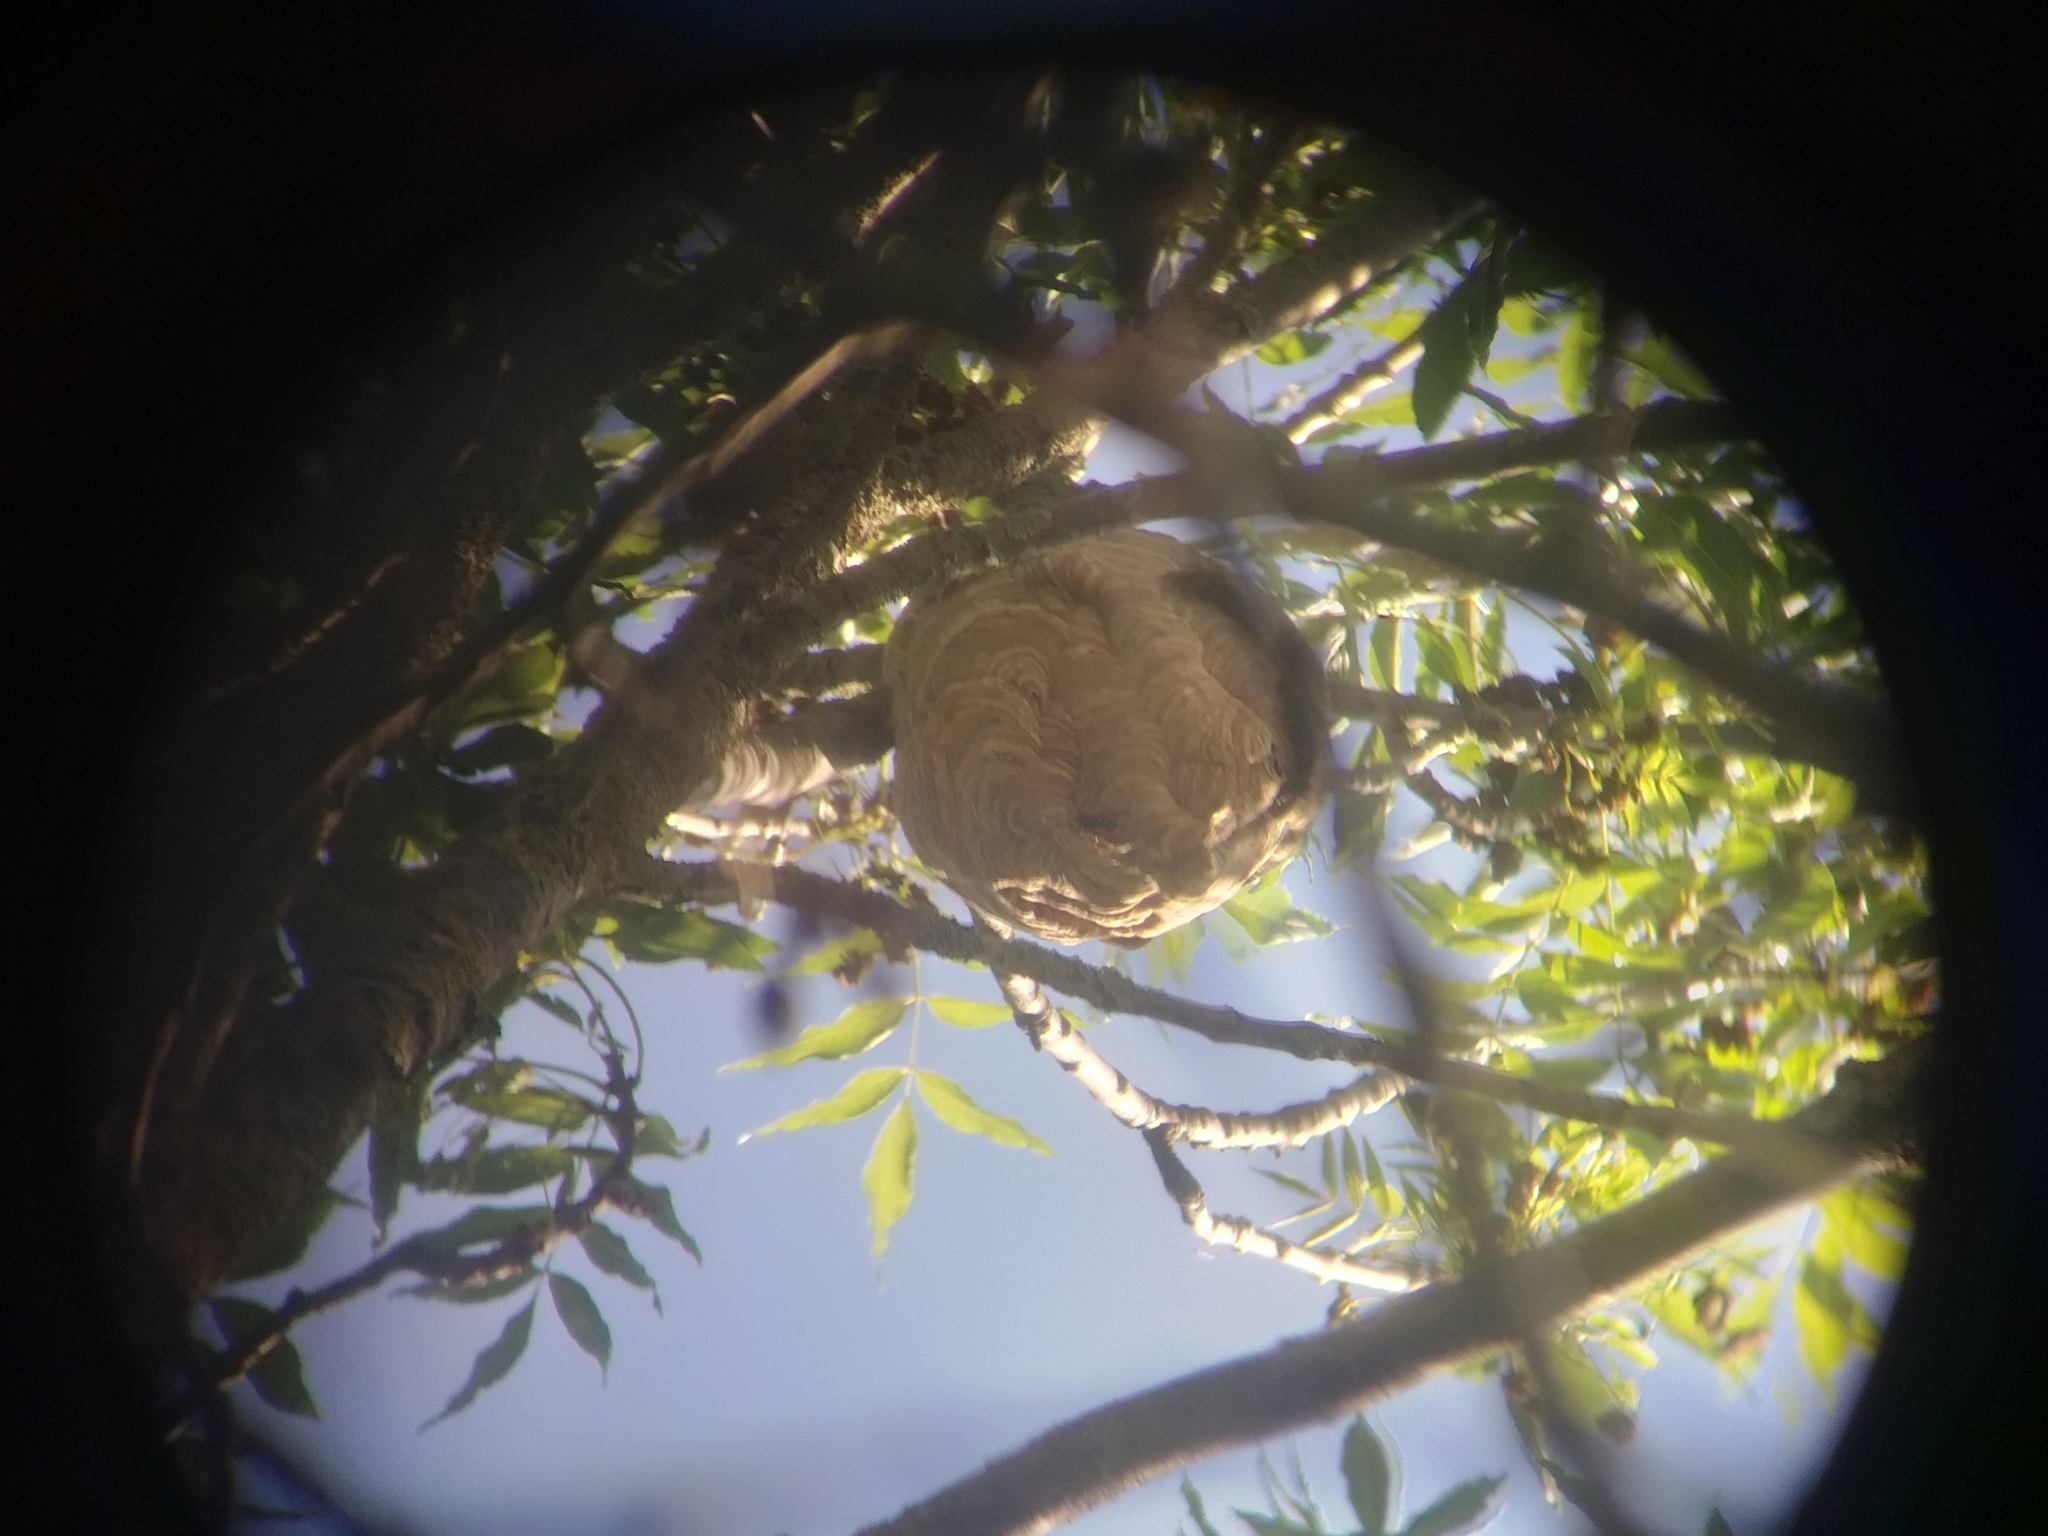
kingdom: Animalia
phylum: Arthropoda
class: Insecta
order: Hymenoptera
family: Vespidae
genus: Vespa
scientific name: Vespa velutina
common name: Asian hornet
